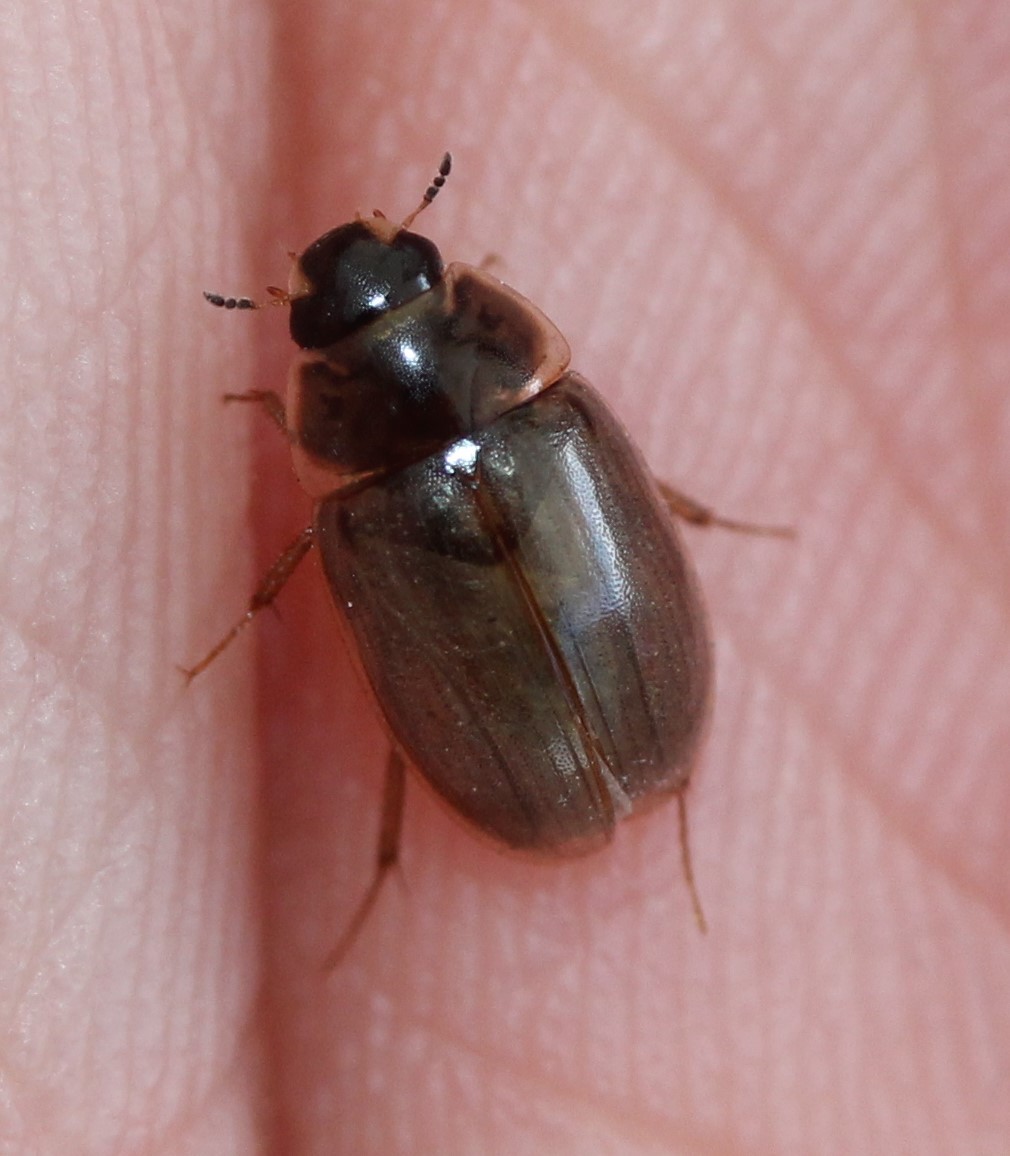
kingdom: Animalia
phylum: Arthropoda
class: Insecta
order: Coleoptera
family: Hydrophilidae
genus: Enochrus
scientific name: Enochrus
